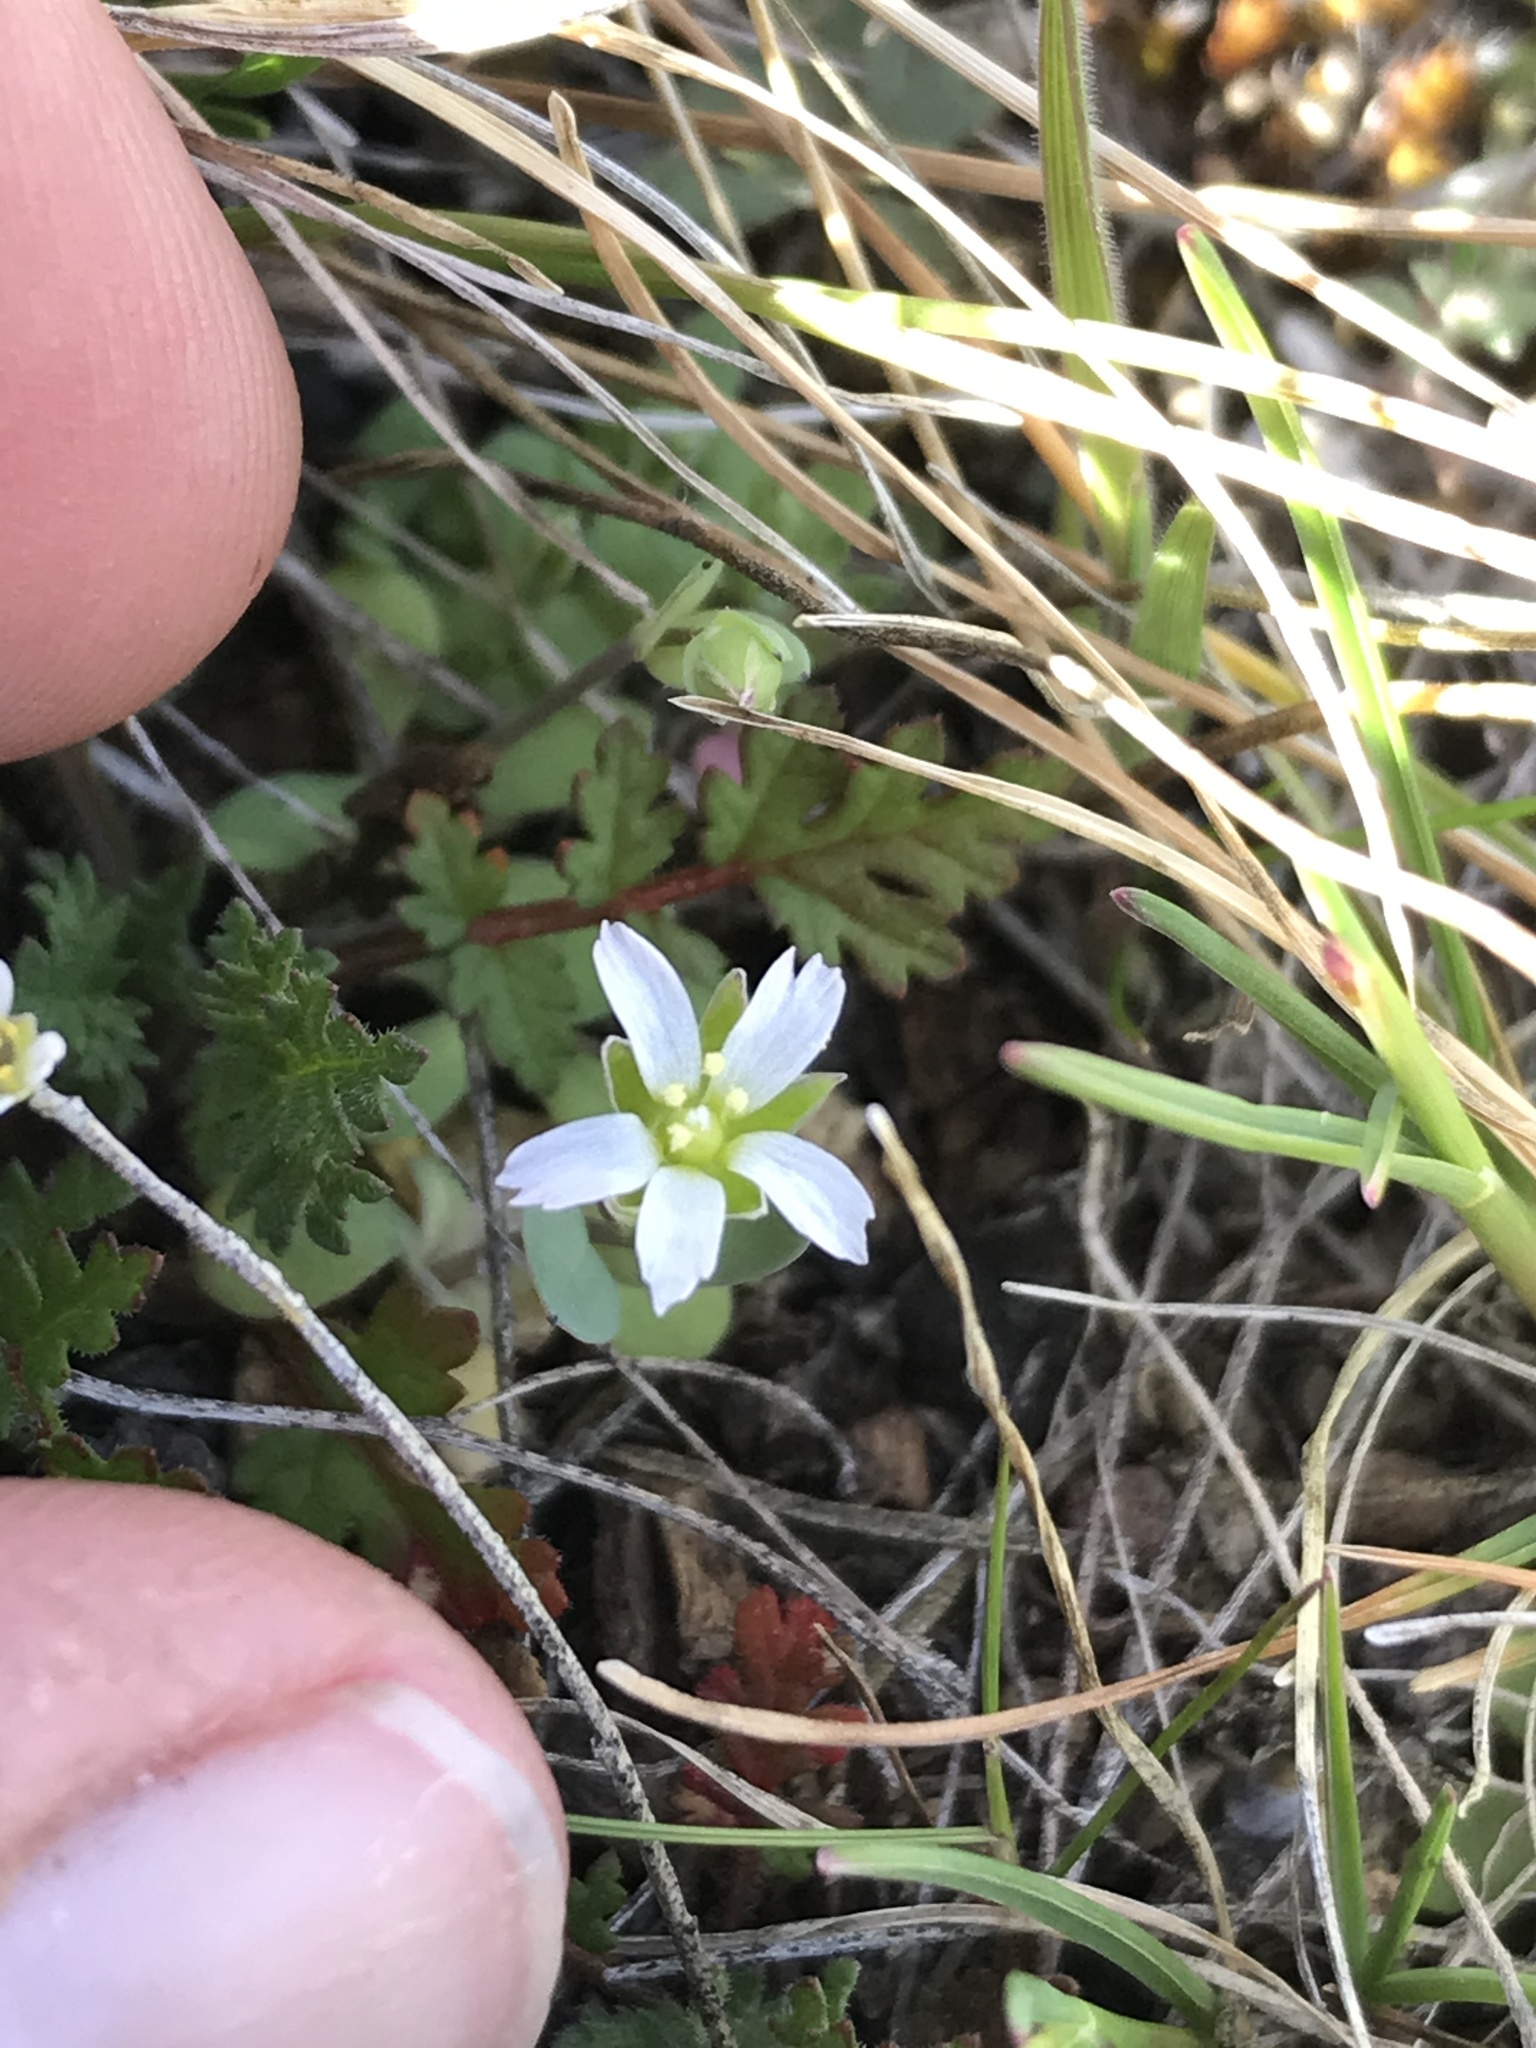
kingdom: Plantae
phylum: Tracheophyta
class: Magnoliopsida
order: Caryophyllales
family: Caryophyllaceae
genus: Holosteum
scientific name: Holosteum umbellatum
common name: Jagged chickweed
